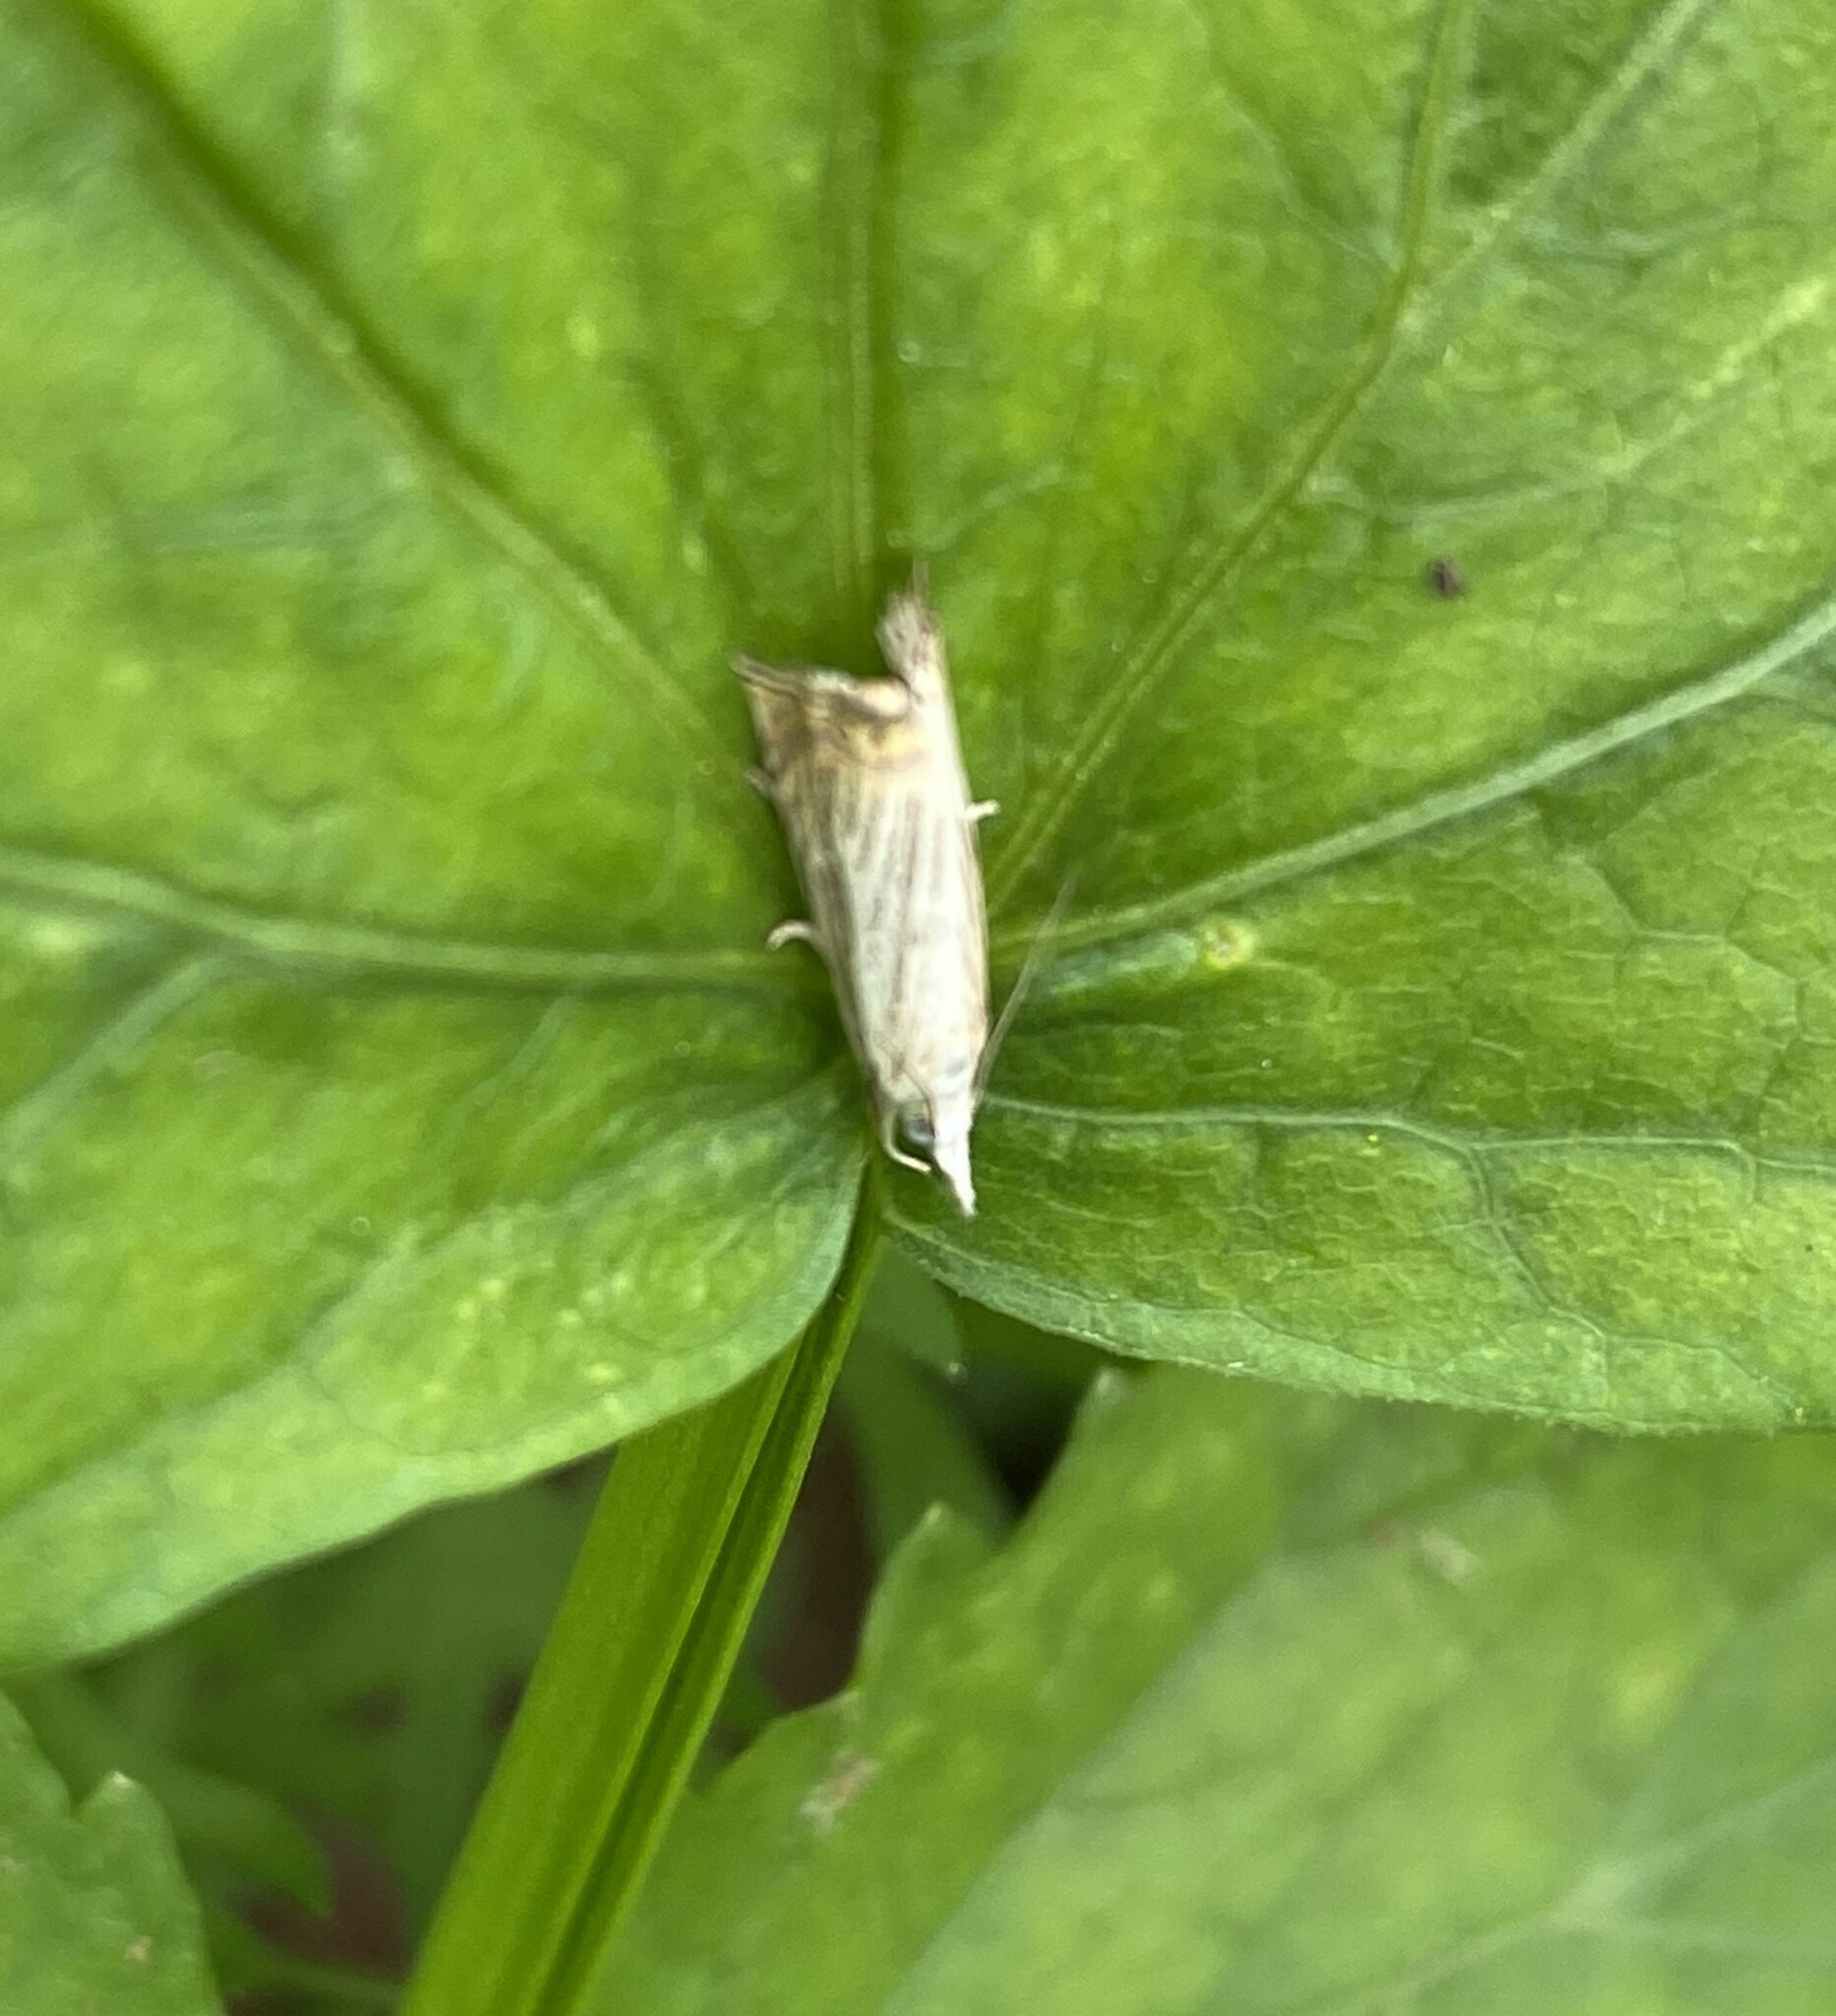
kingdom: Animalia
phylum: Arthropoda
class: Insecta
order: Lepidoptera
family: Crambidae
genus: Chrysoteuchia
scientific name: Chrysoteuchia topiarius
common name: Topiary grass-veneer
